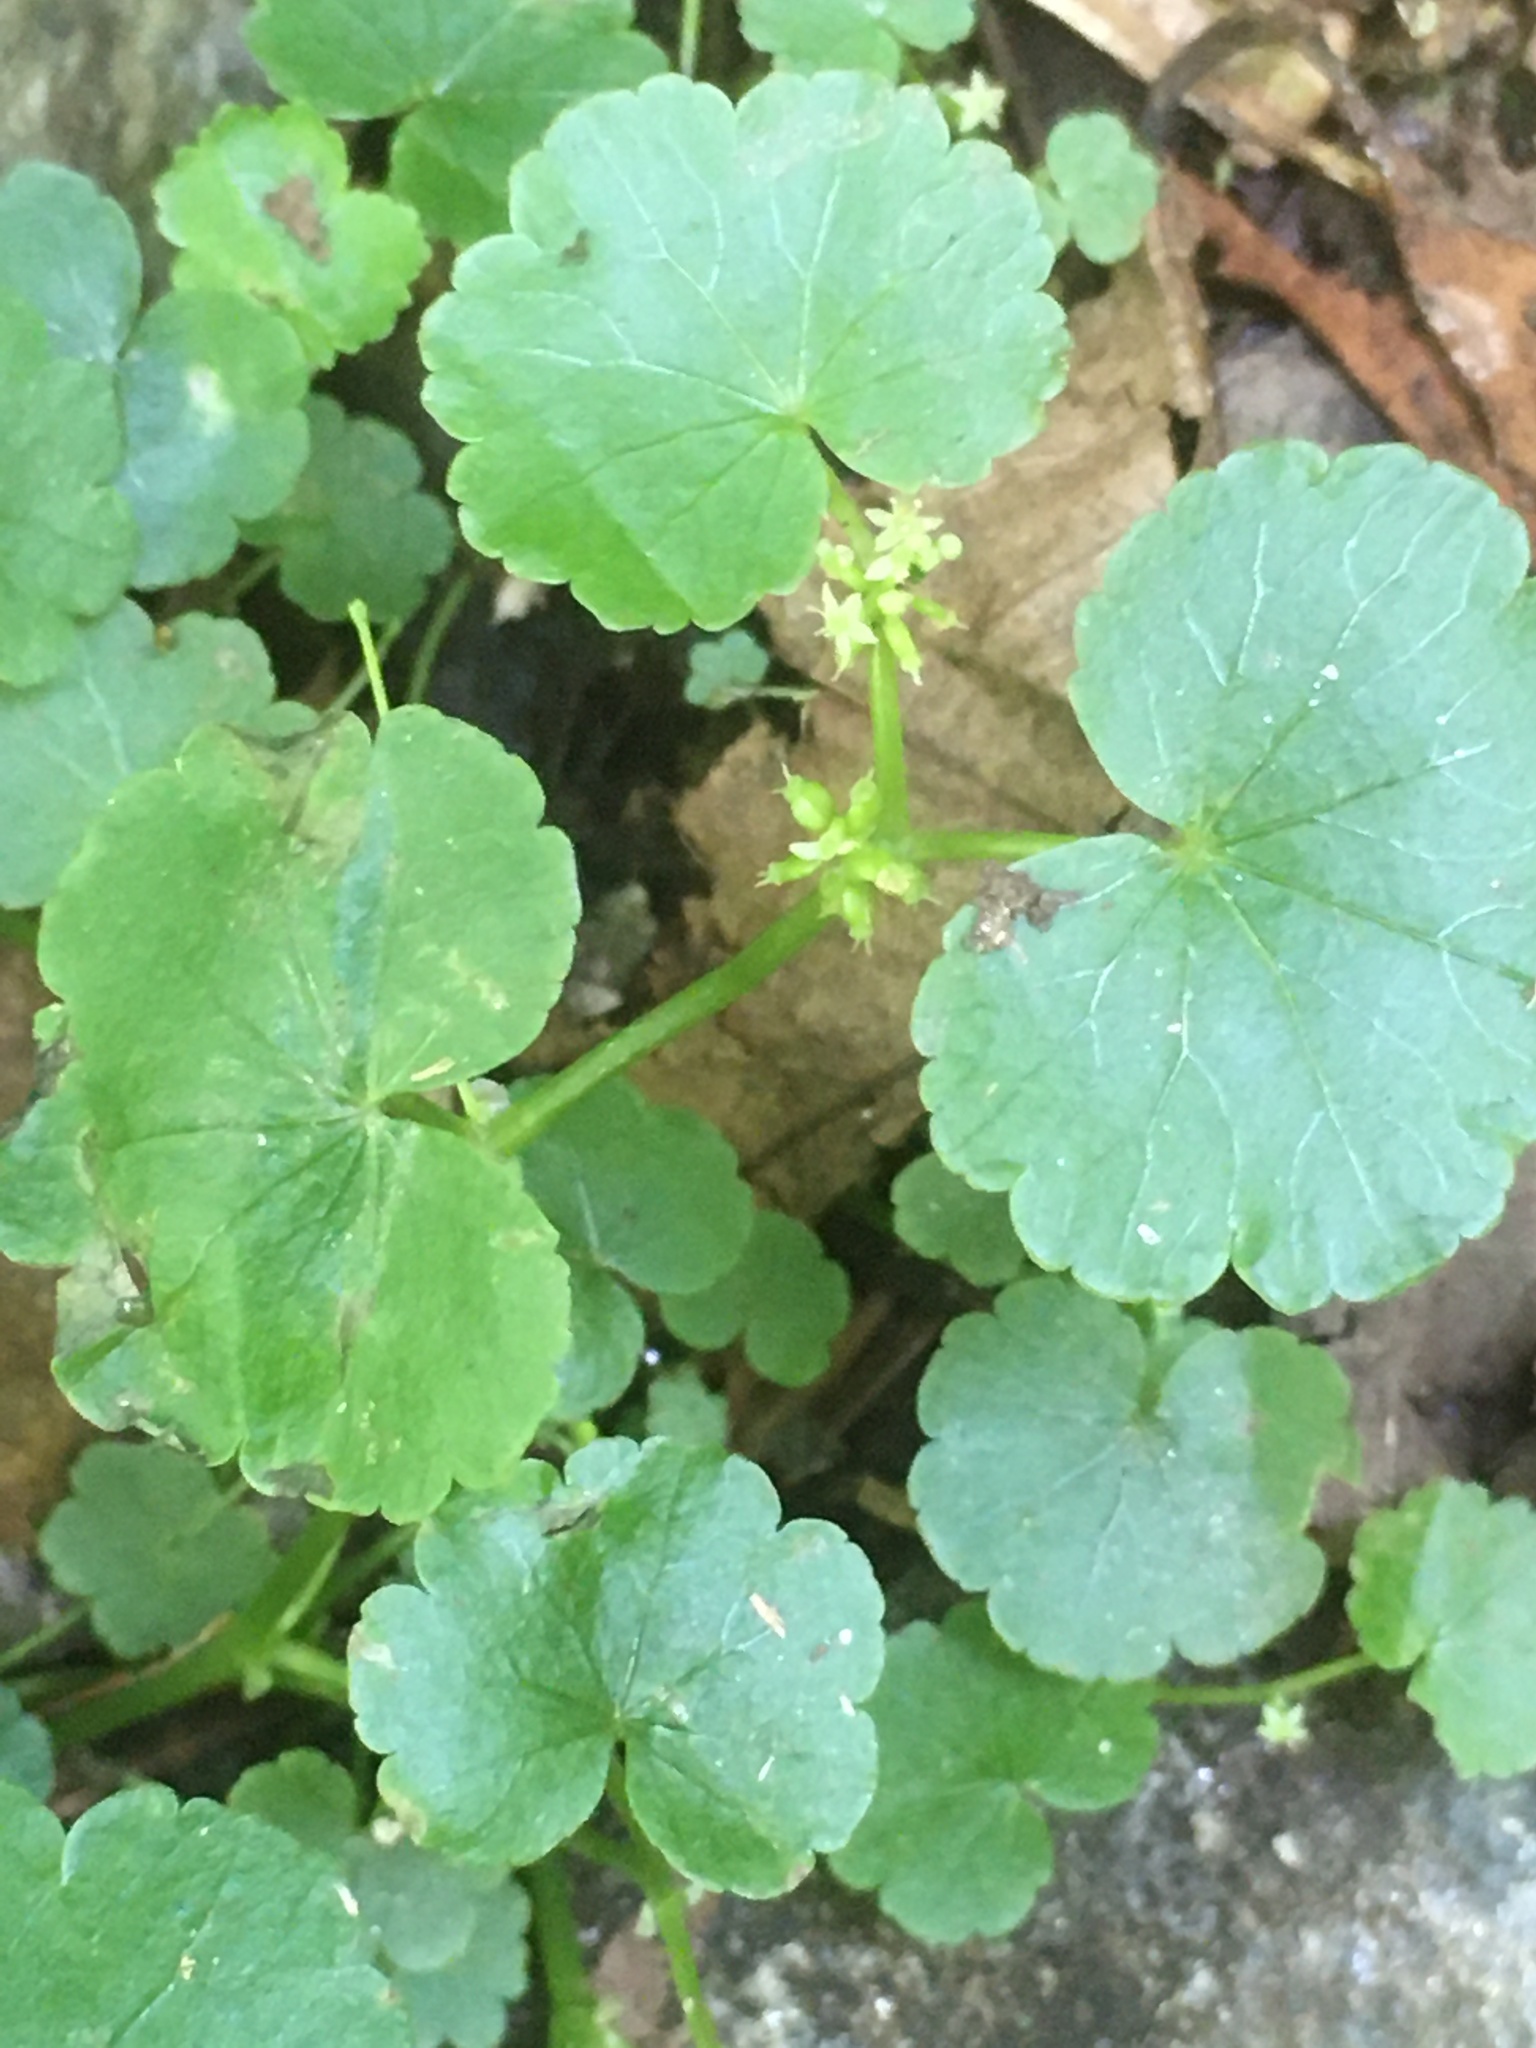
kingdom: Plantae
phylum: Tracheophyta
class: Magnoliopsida
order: Apiales
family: Araliaceae
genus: Hydrocotyle
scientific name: Hydrocotyle americana
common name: American water-pennywort
